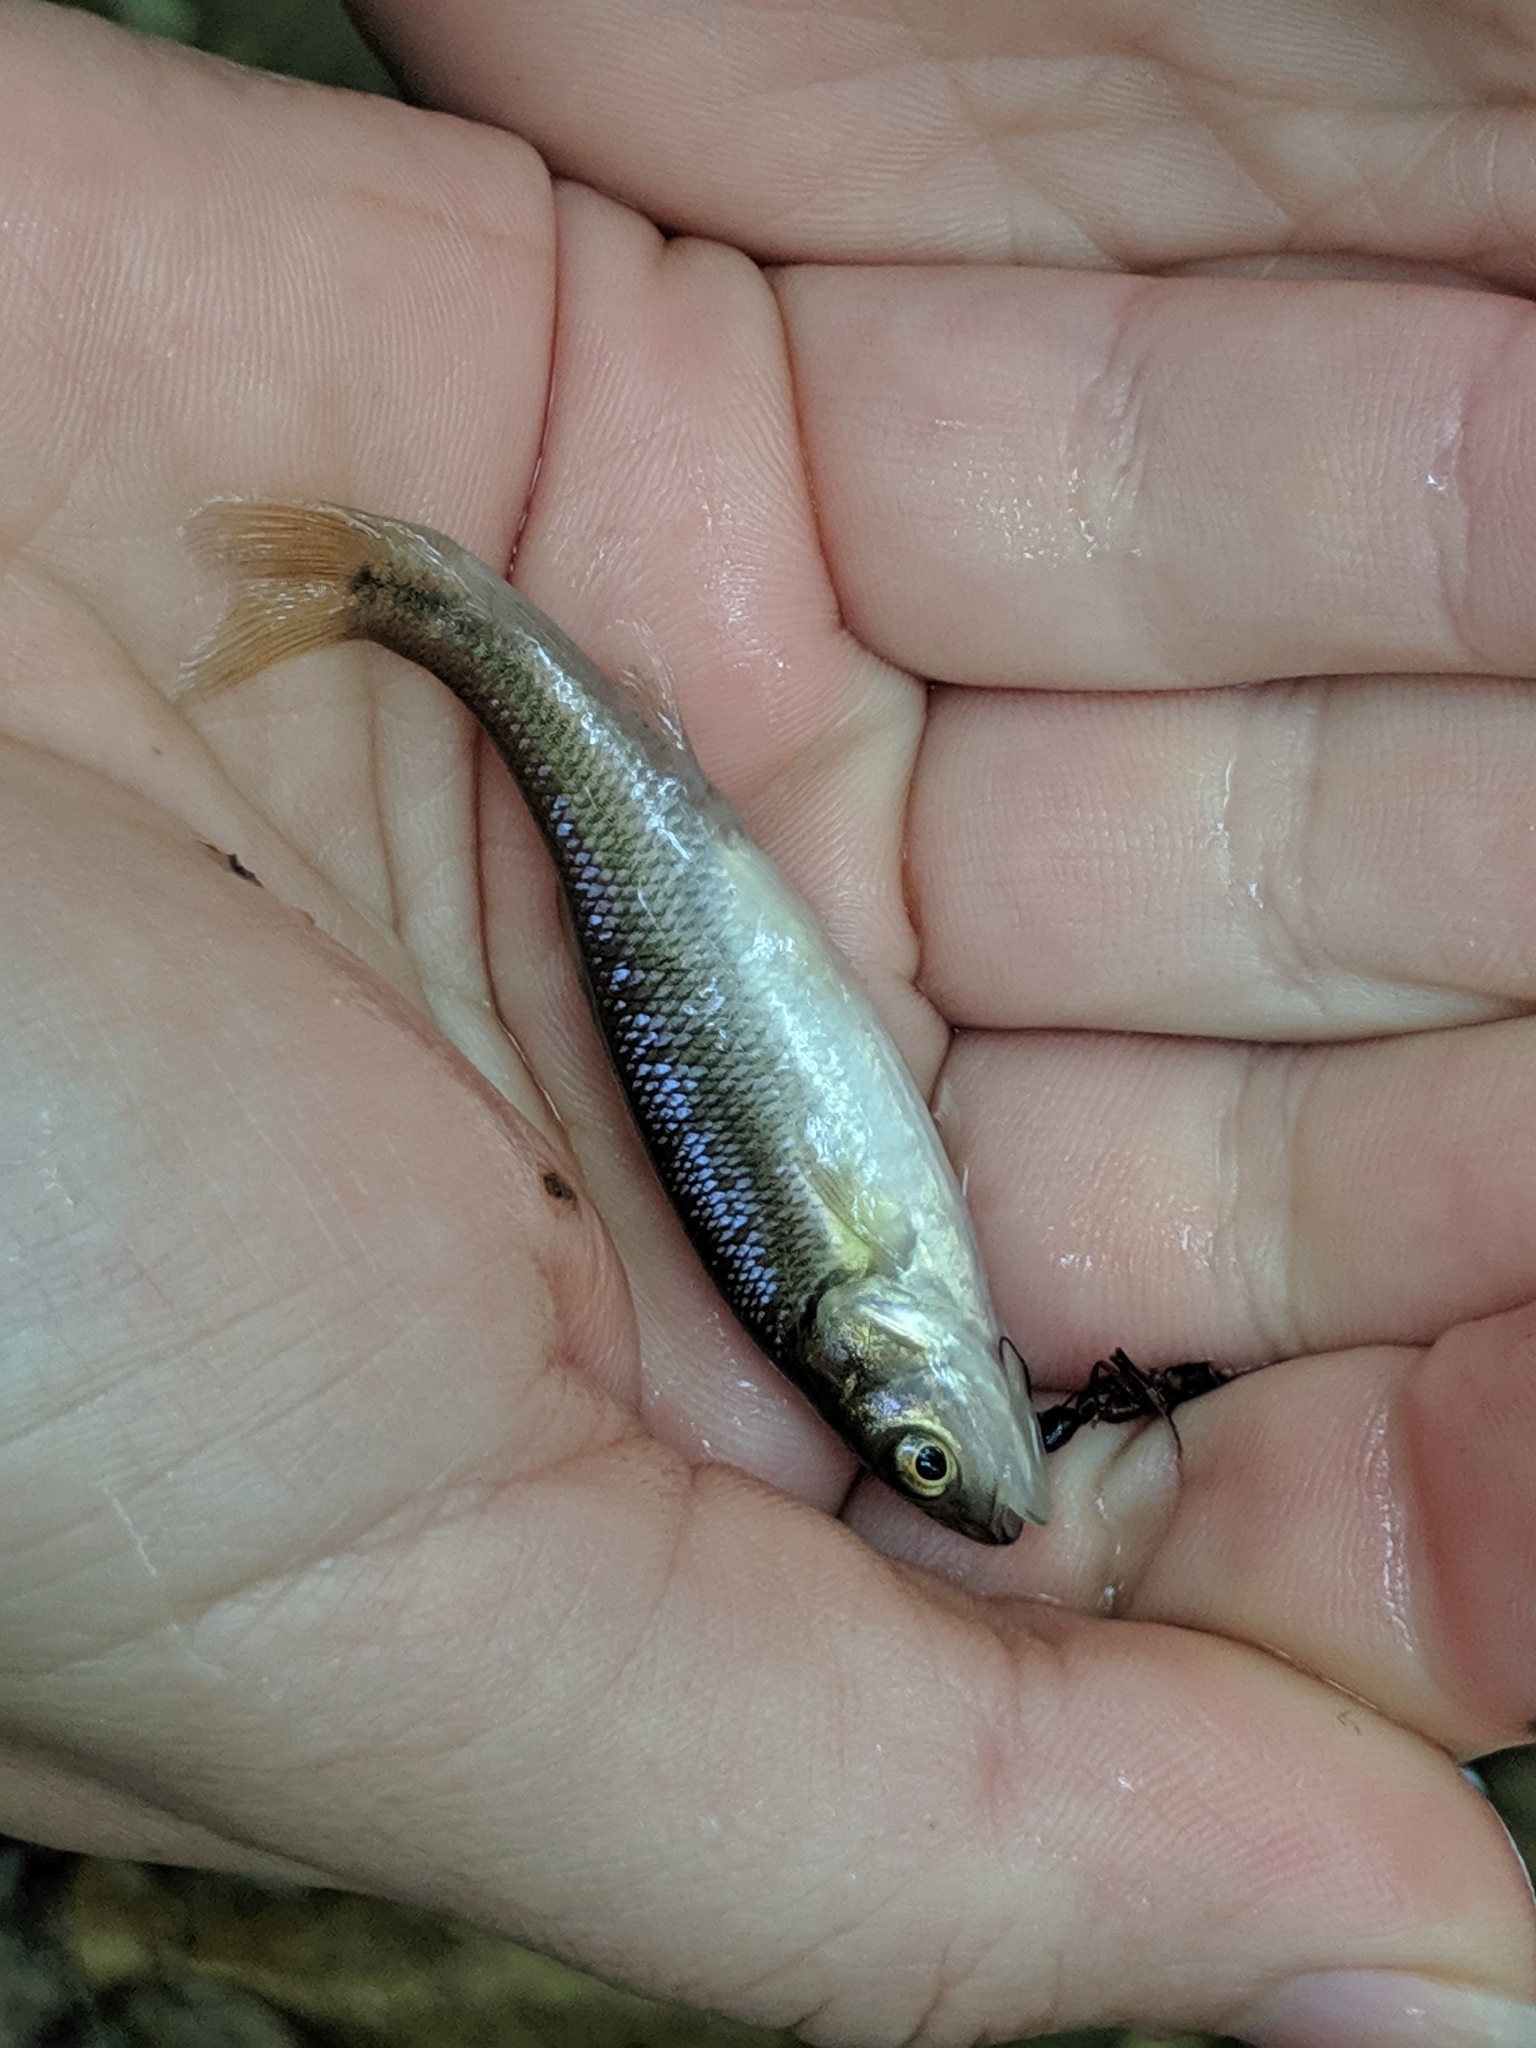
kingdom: Animalia
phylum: Chordata
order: Cypriniformes
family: Cyprinidae
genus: Semotilus
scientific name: Semotilus atromaculatus
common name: Creek chub
